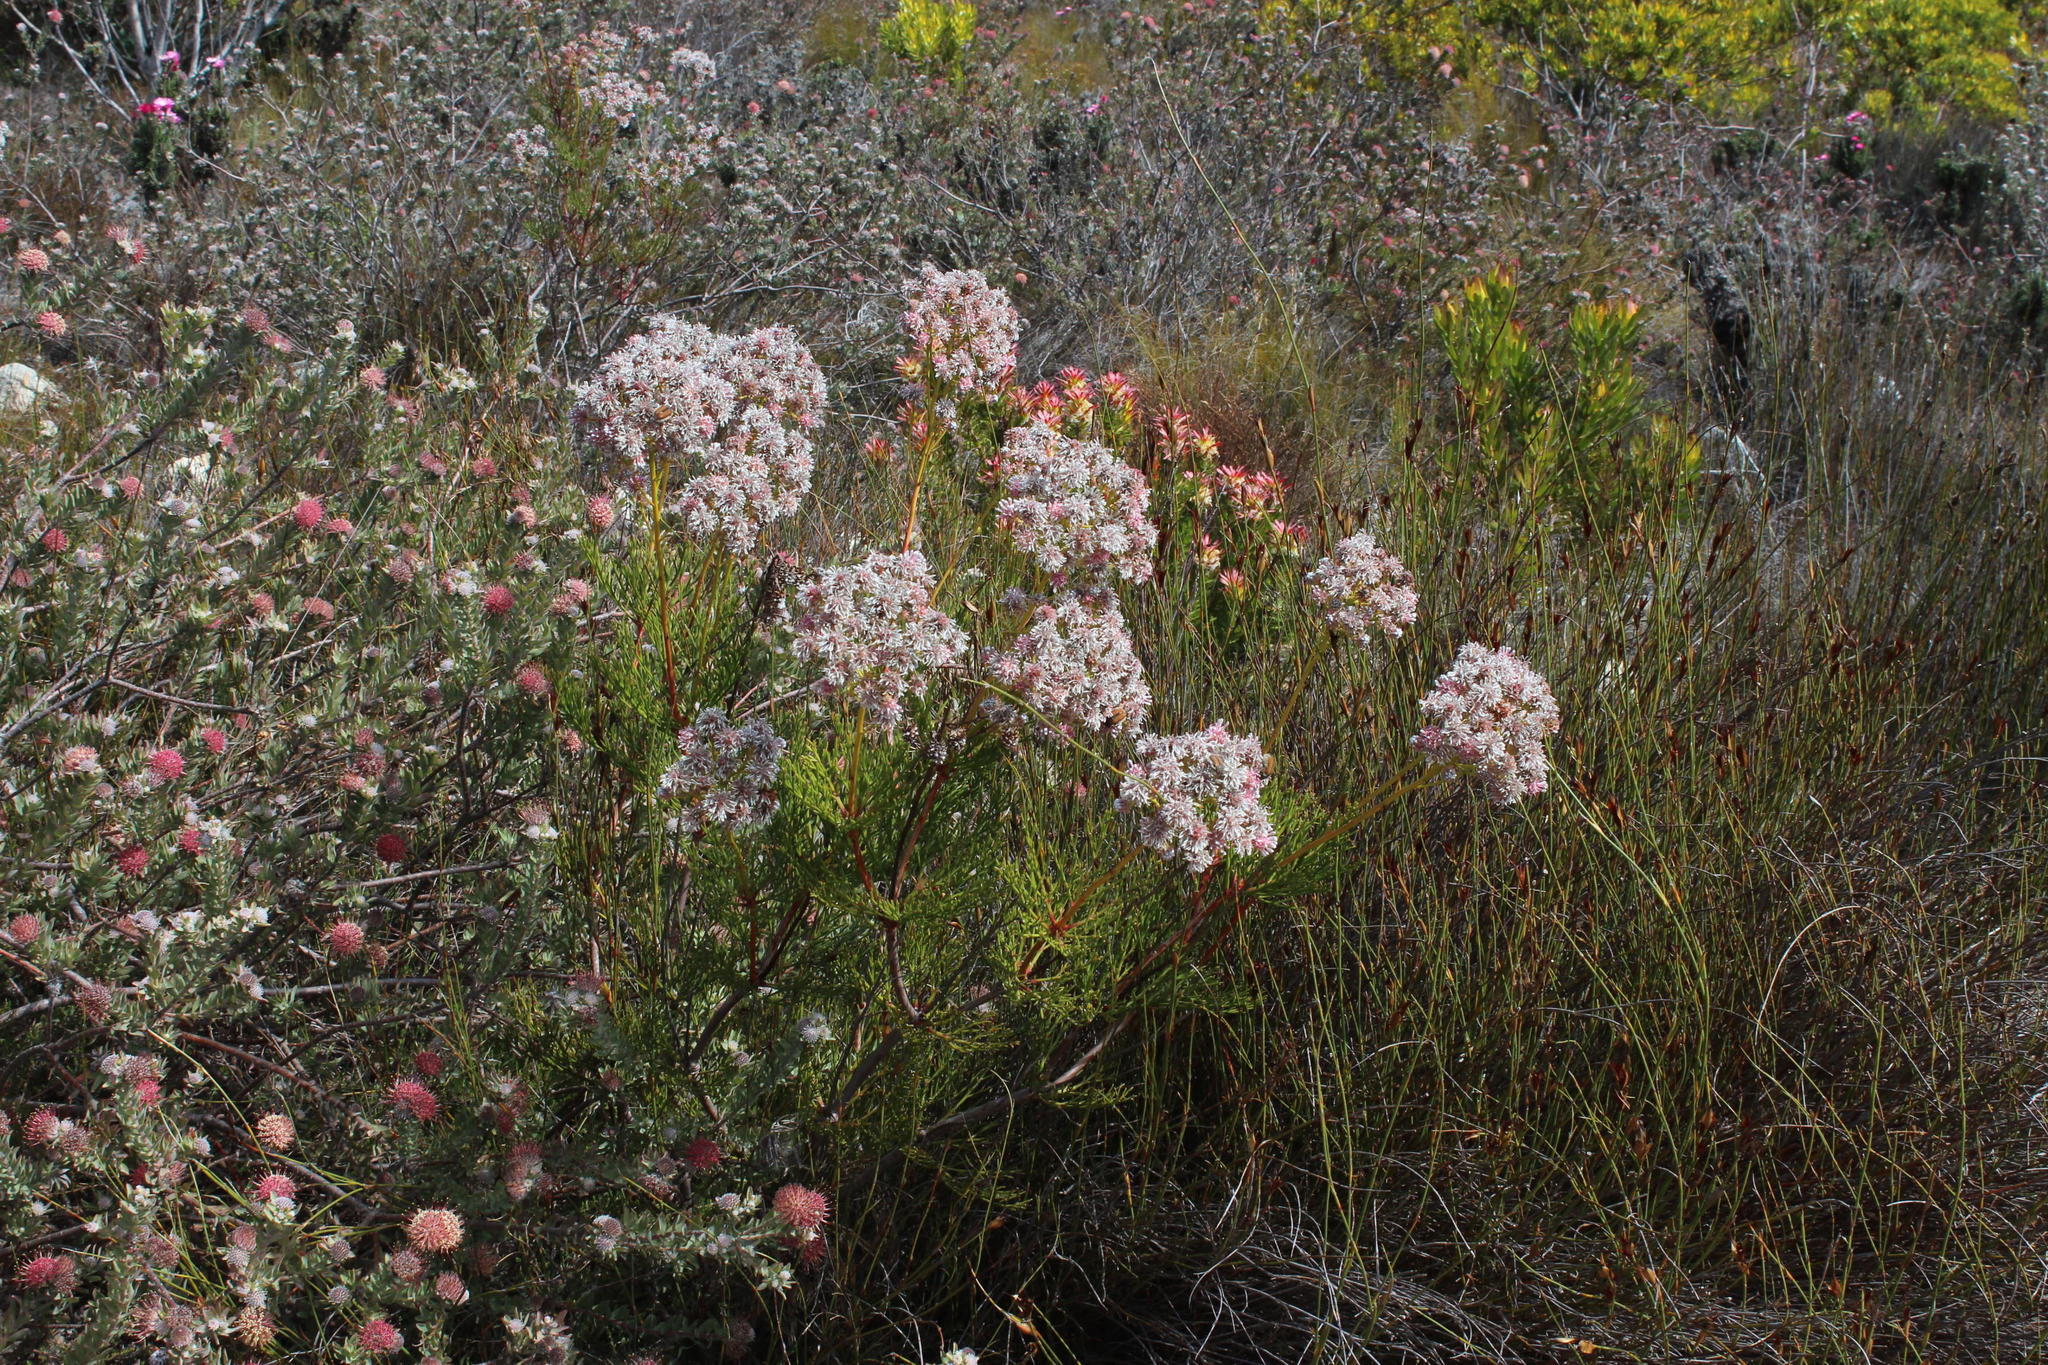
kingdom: Plantae
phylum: Tracheophyta
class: Magnoliopsida
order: Proteales
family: Proteaceae
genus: Serruria
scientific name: Serruria elongata
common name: Long-stalk spiderhead
